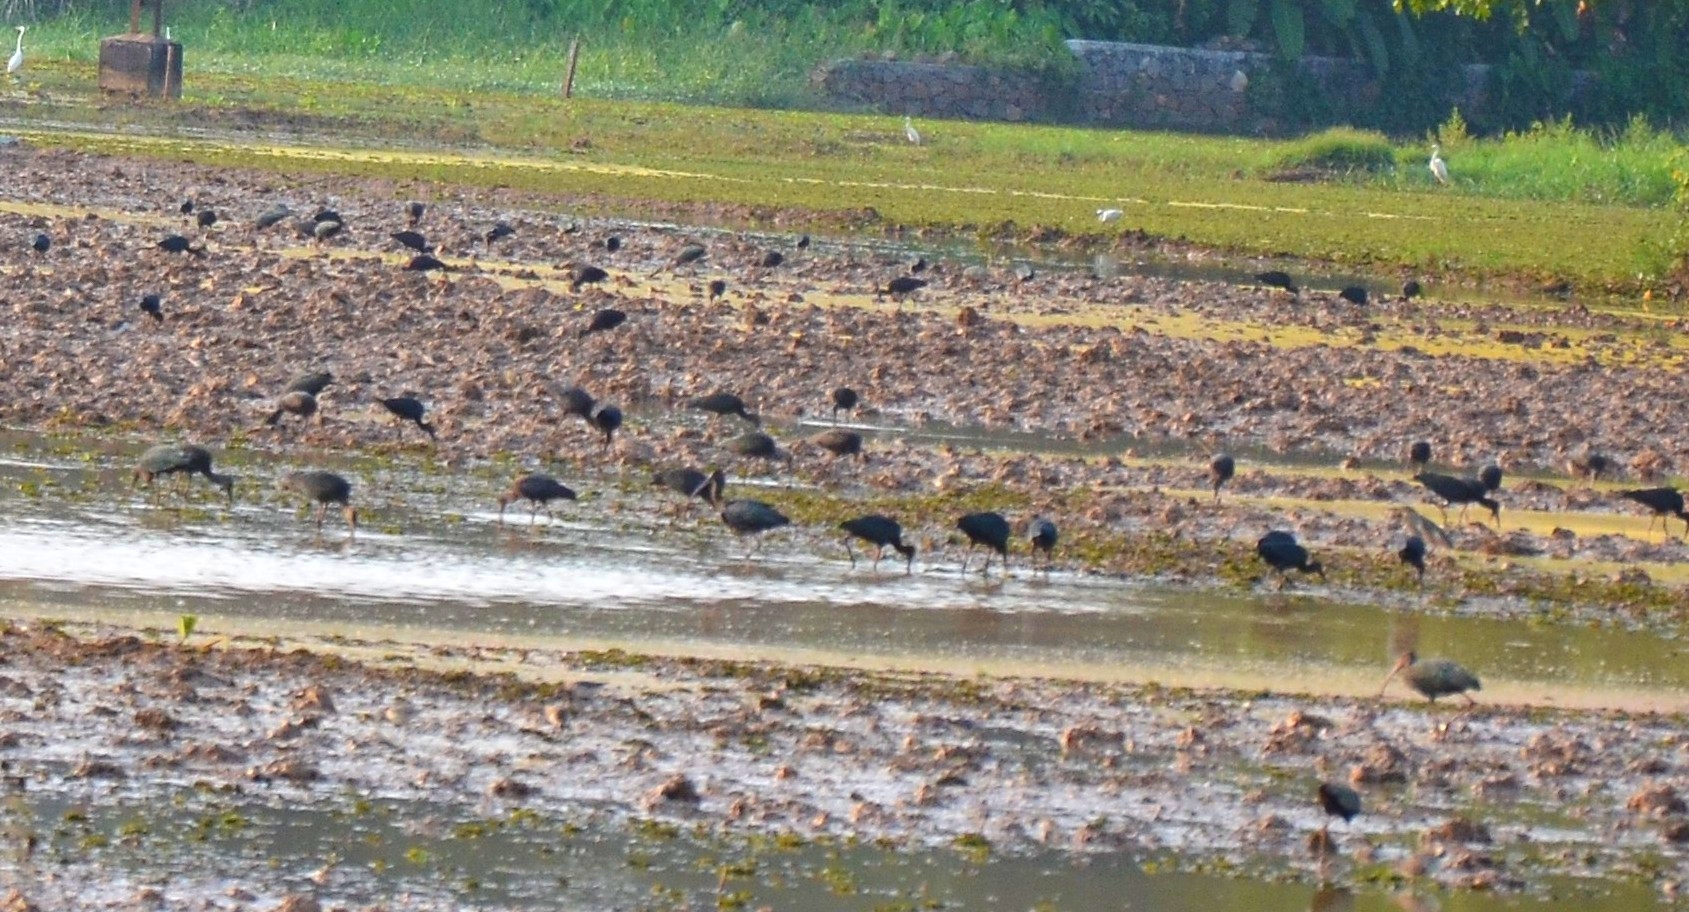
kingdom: Animalia
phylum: Chordata
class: Aves
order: Pelecaniformes
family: Threskiornithidae
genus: Plegadis
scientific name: Plegadis falcinellus
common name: Glossy ibis
